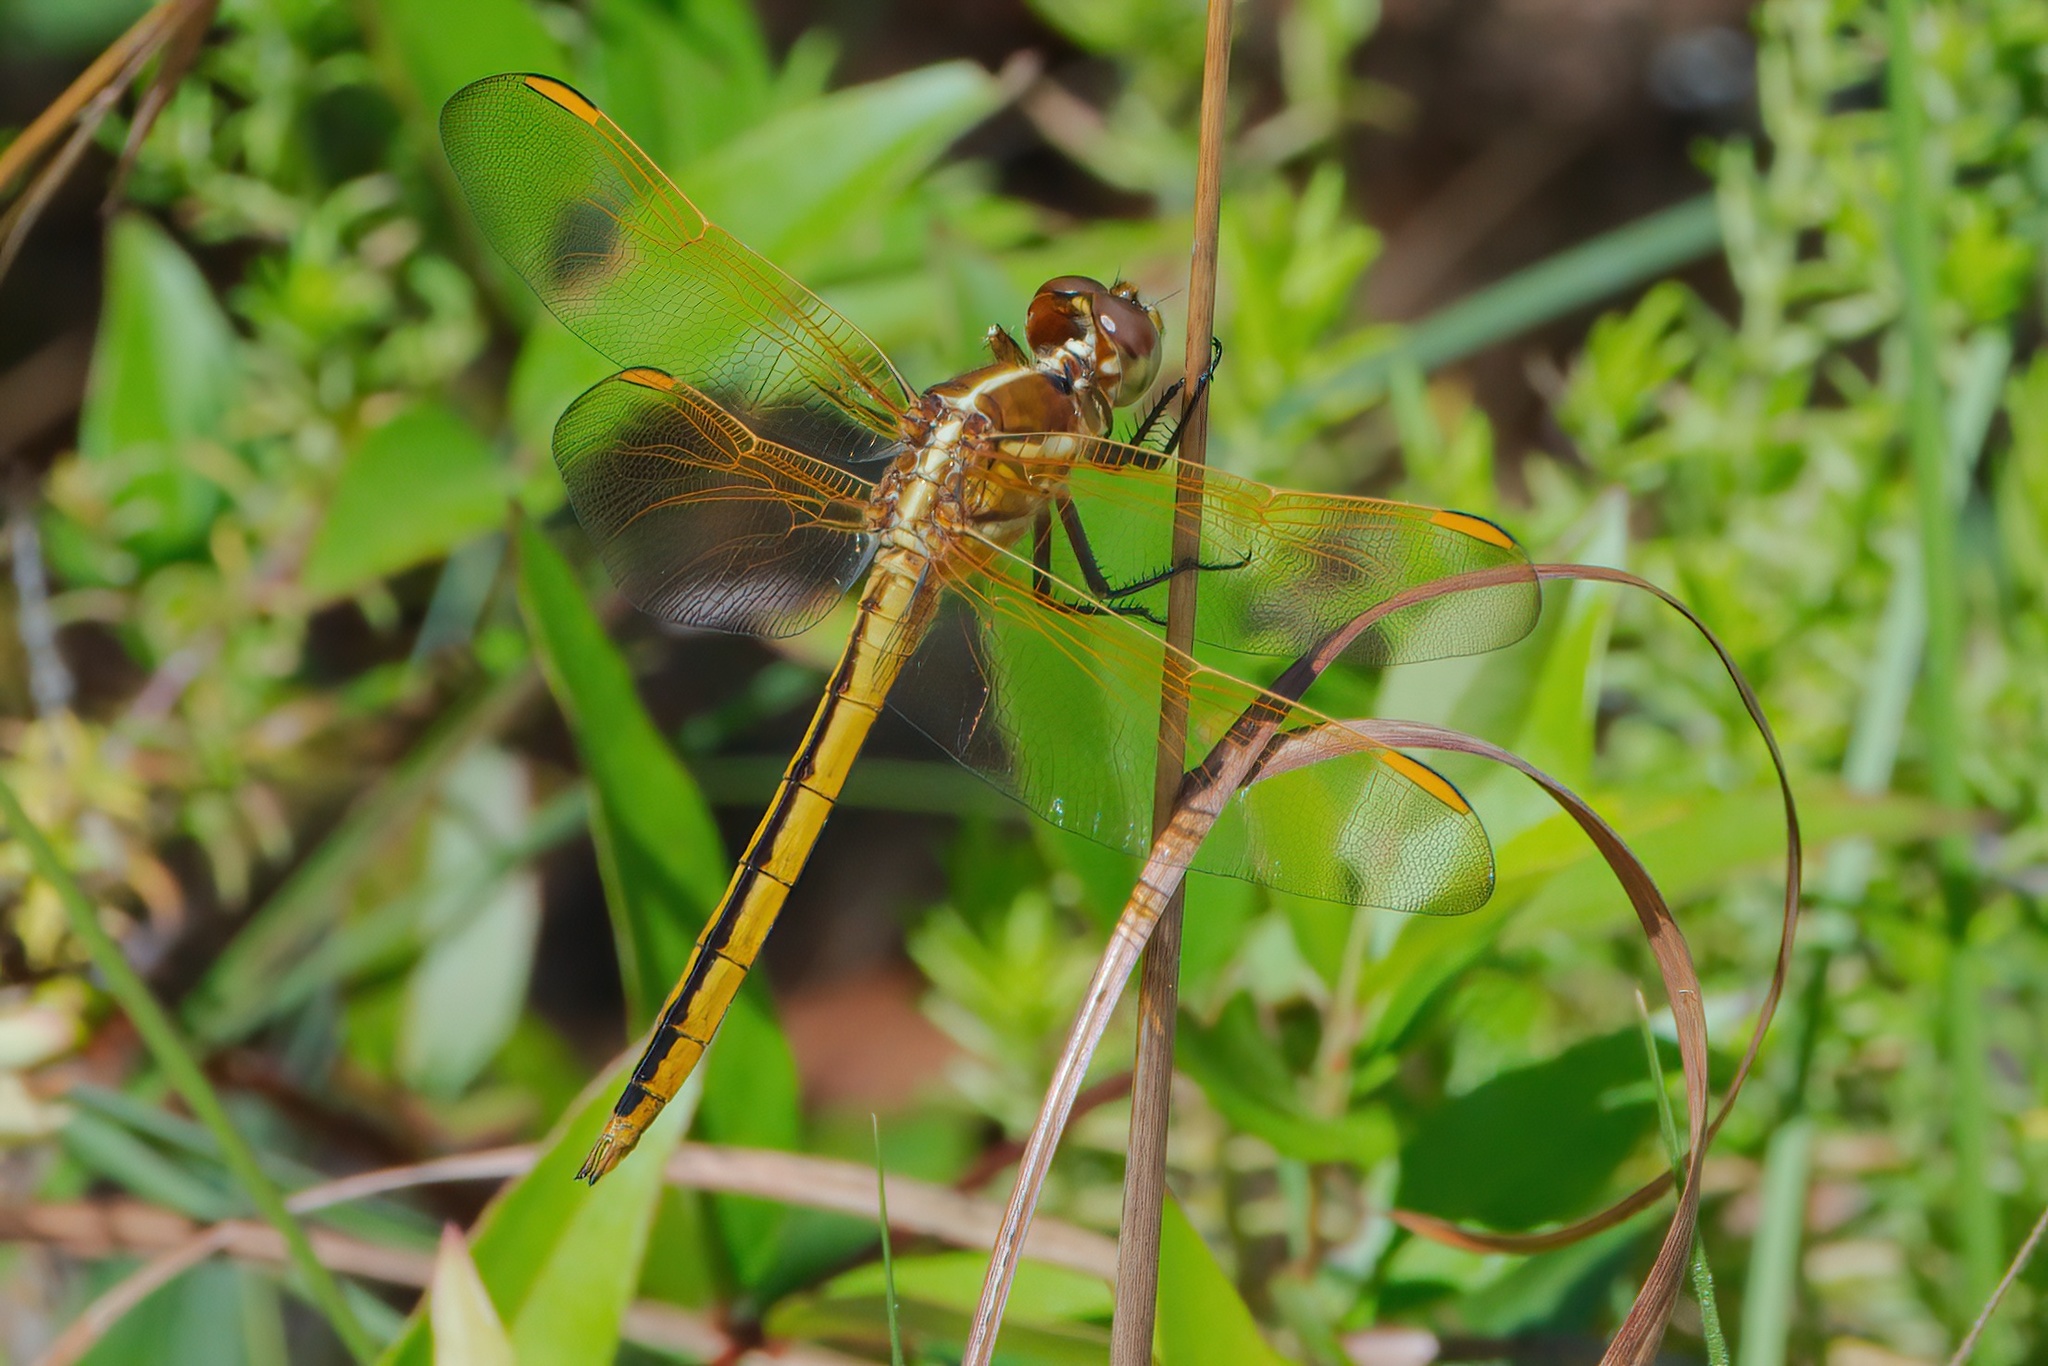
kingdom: Animalia
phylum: Arthropoda
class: Insecta
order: Odonata
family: Libellulidae
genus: Libellula
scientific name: Libellula auripennis
